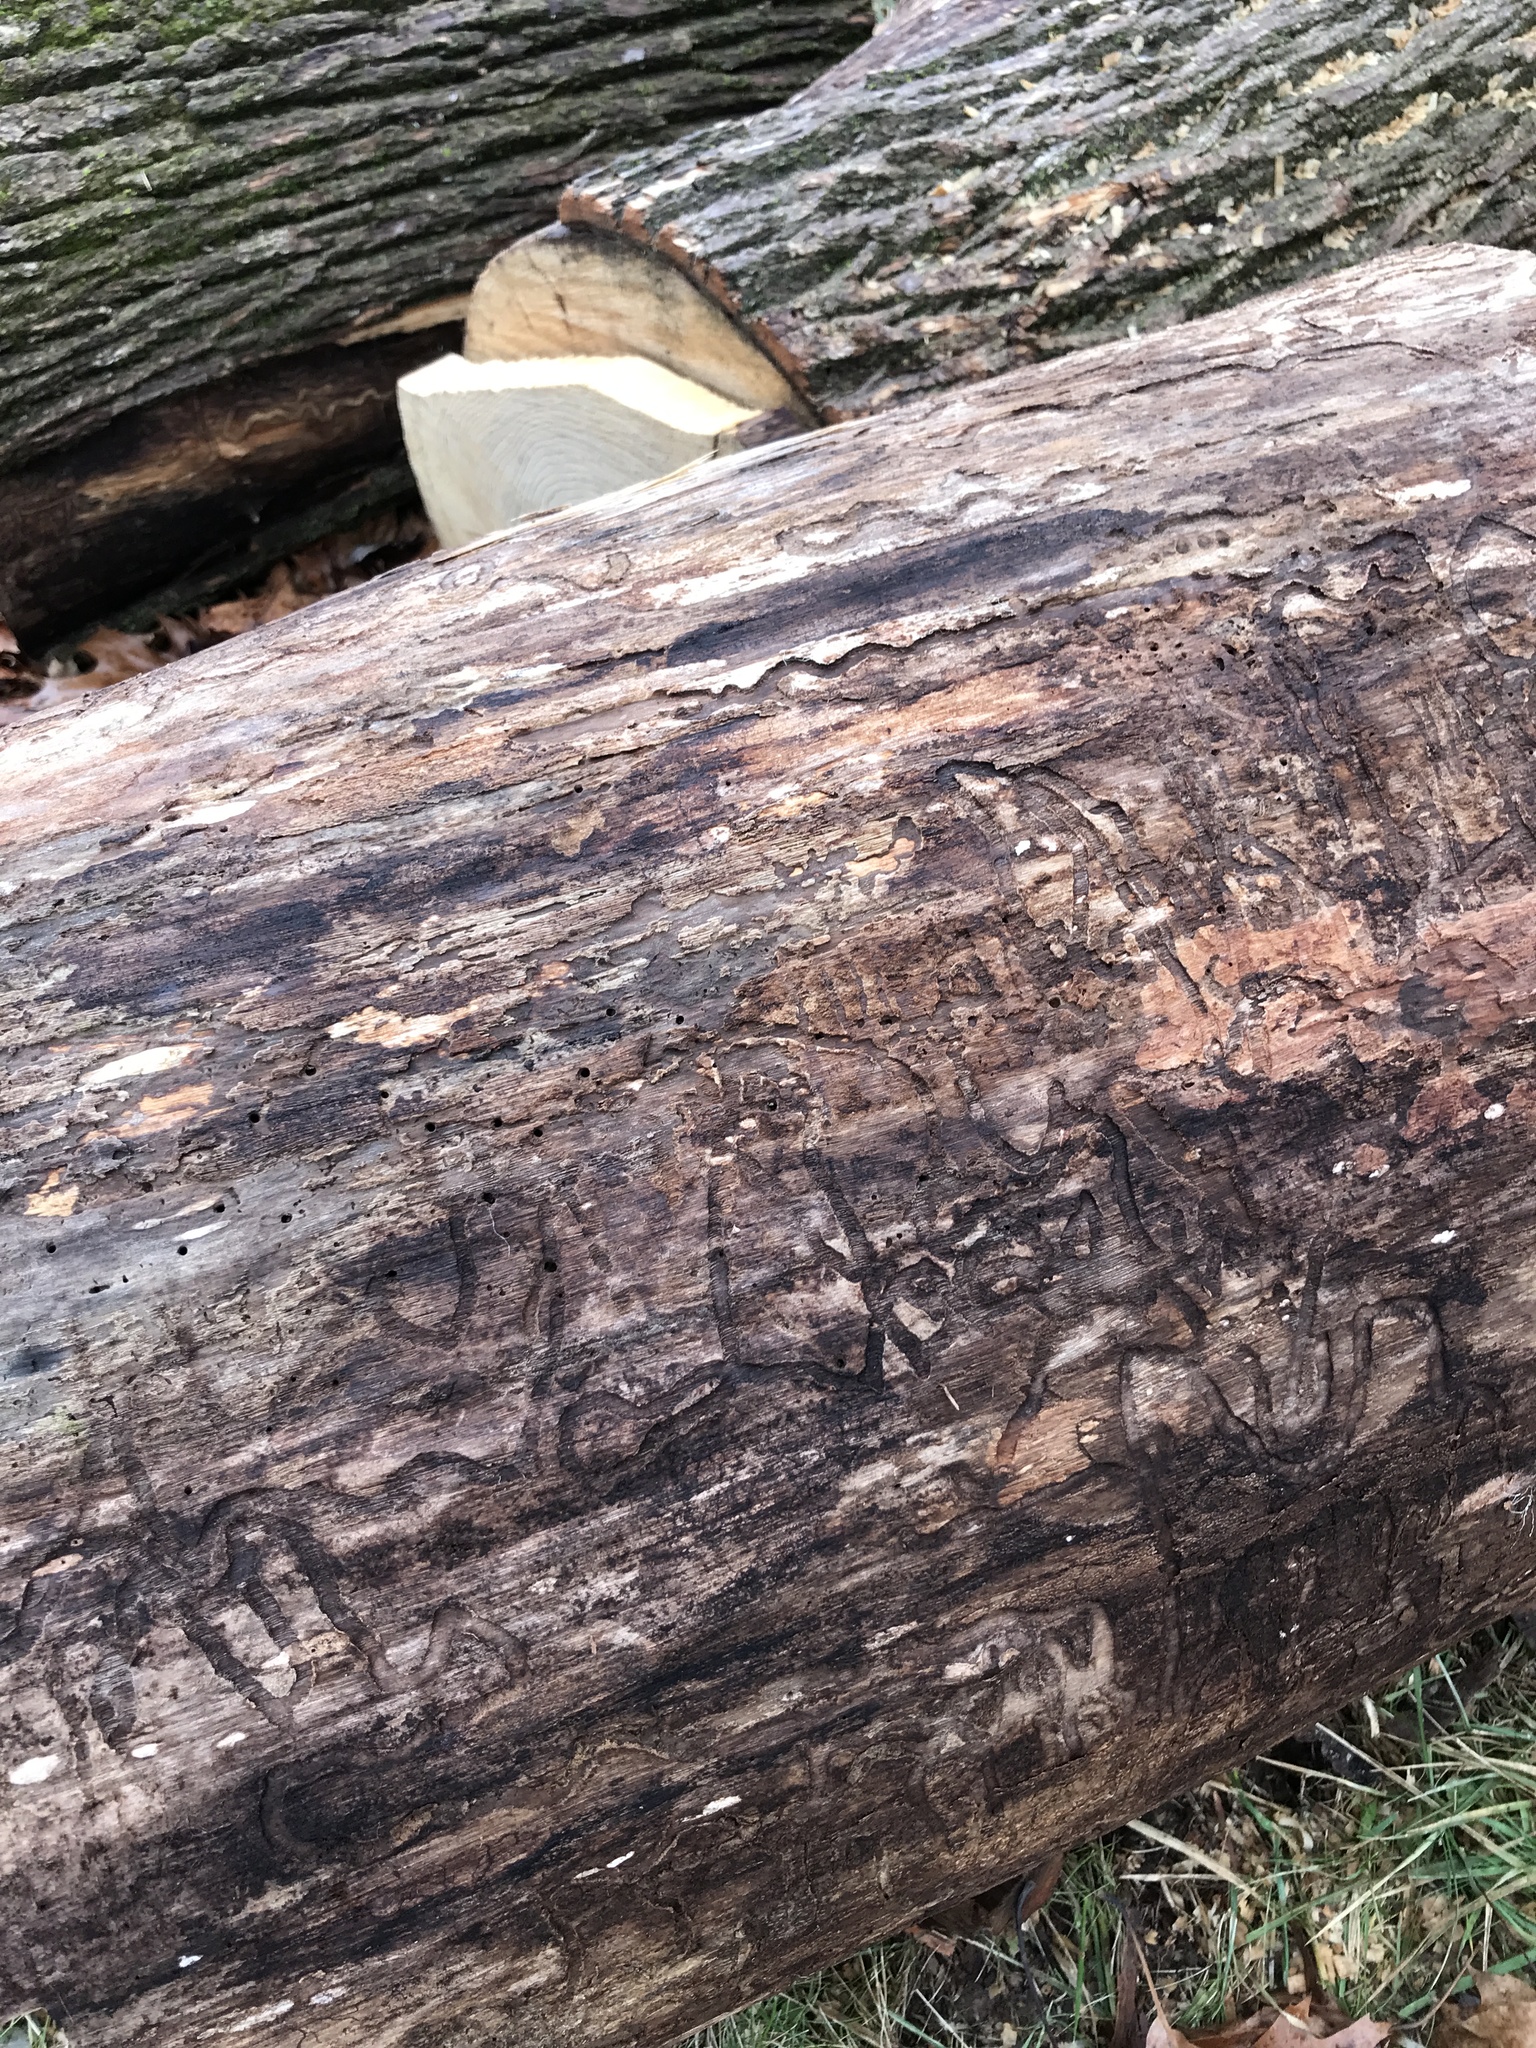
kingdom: Animalia
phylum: Arthropoda
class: Insecta
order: Coleoptera
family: Buprestidae
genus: Agrilus
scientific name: Agrilus planipennis
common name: Emerald ash borer
